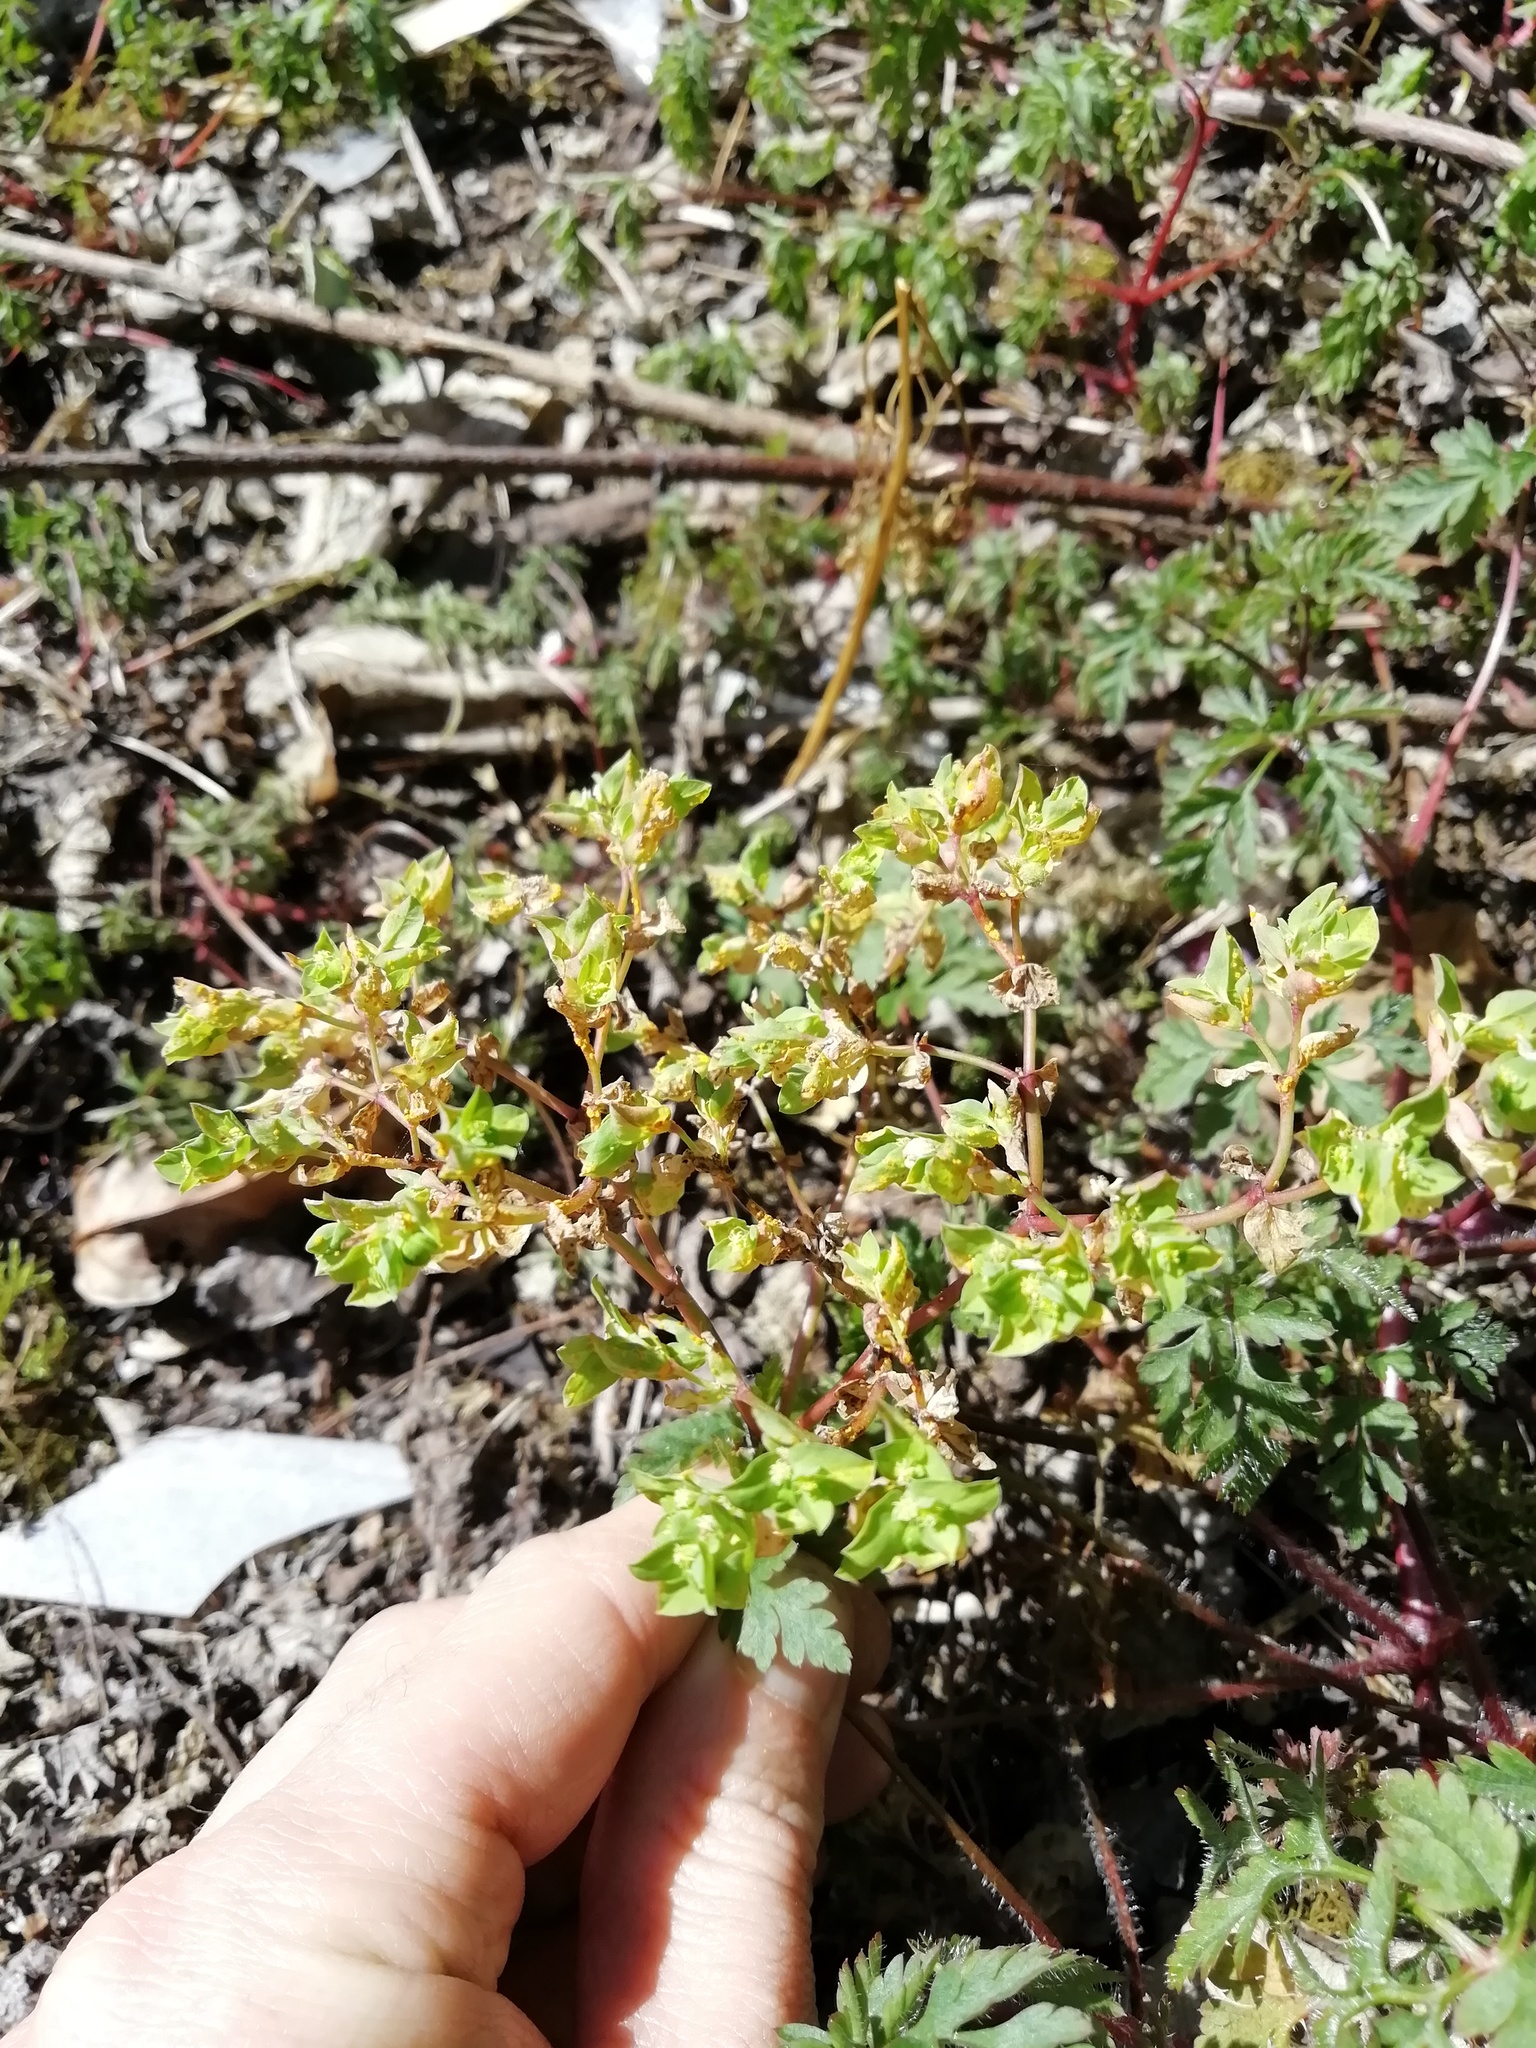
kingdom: Plantae
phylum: Tracheophyta
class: Magnoliopsida
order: Malpighiales
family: Euphorbiaceae
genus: Euphorbia
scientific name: Euphorbia peplus
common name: Petty spurge
